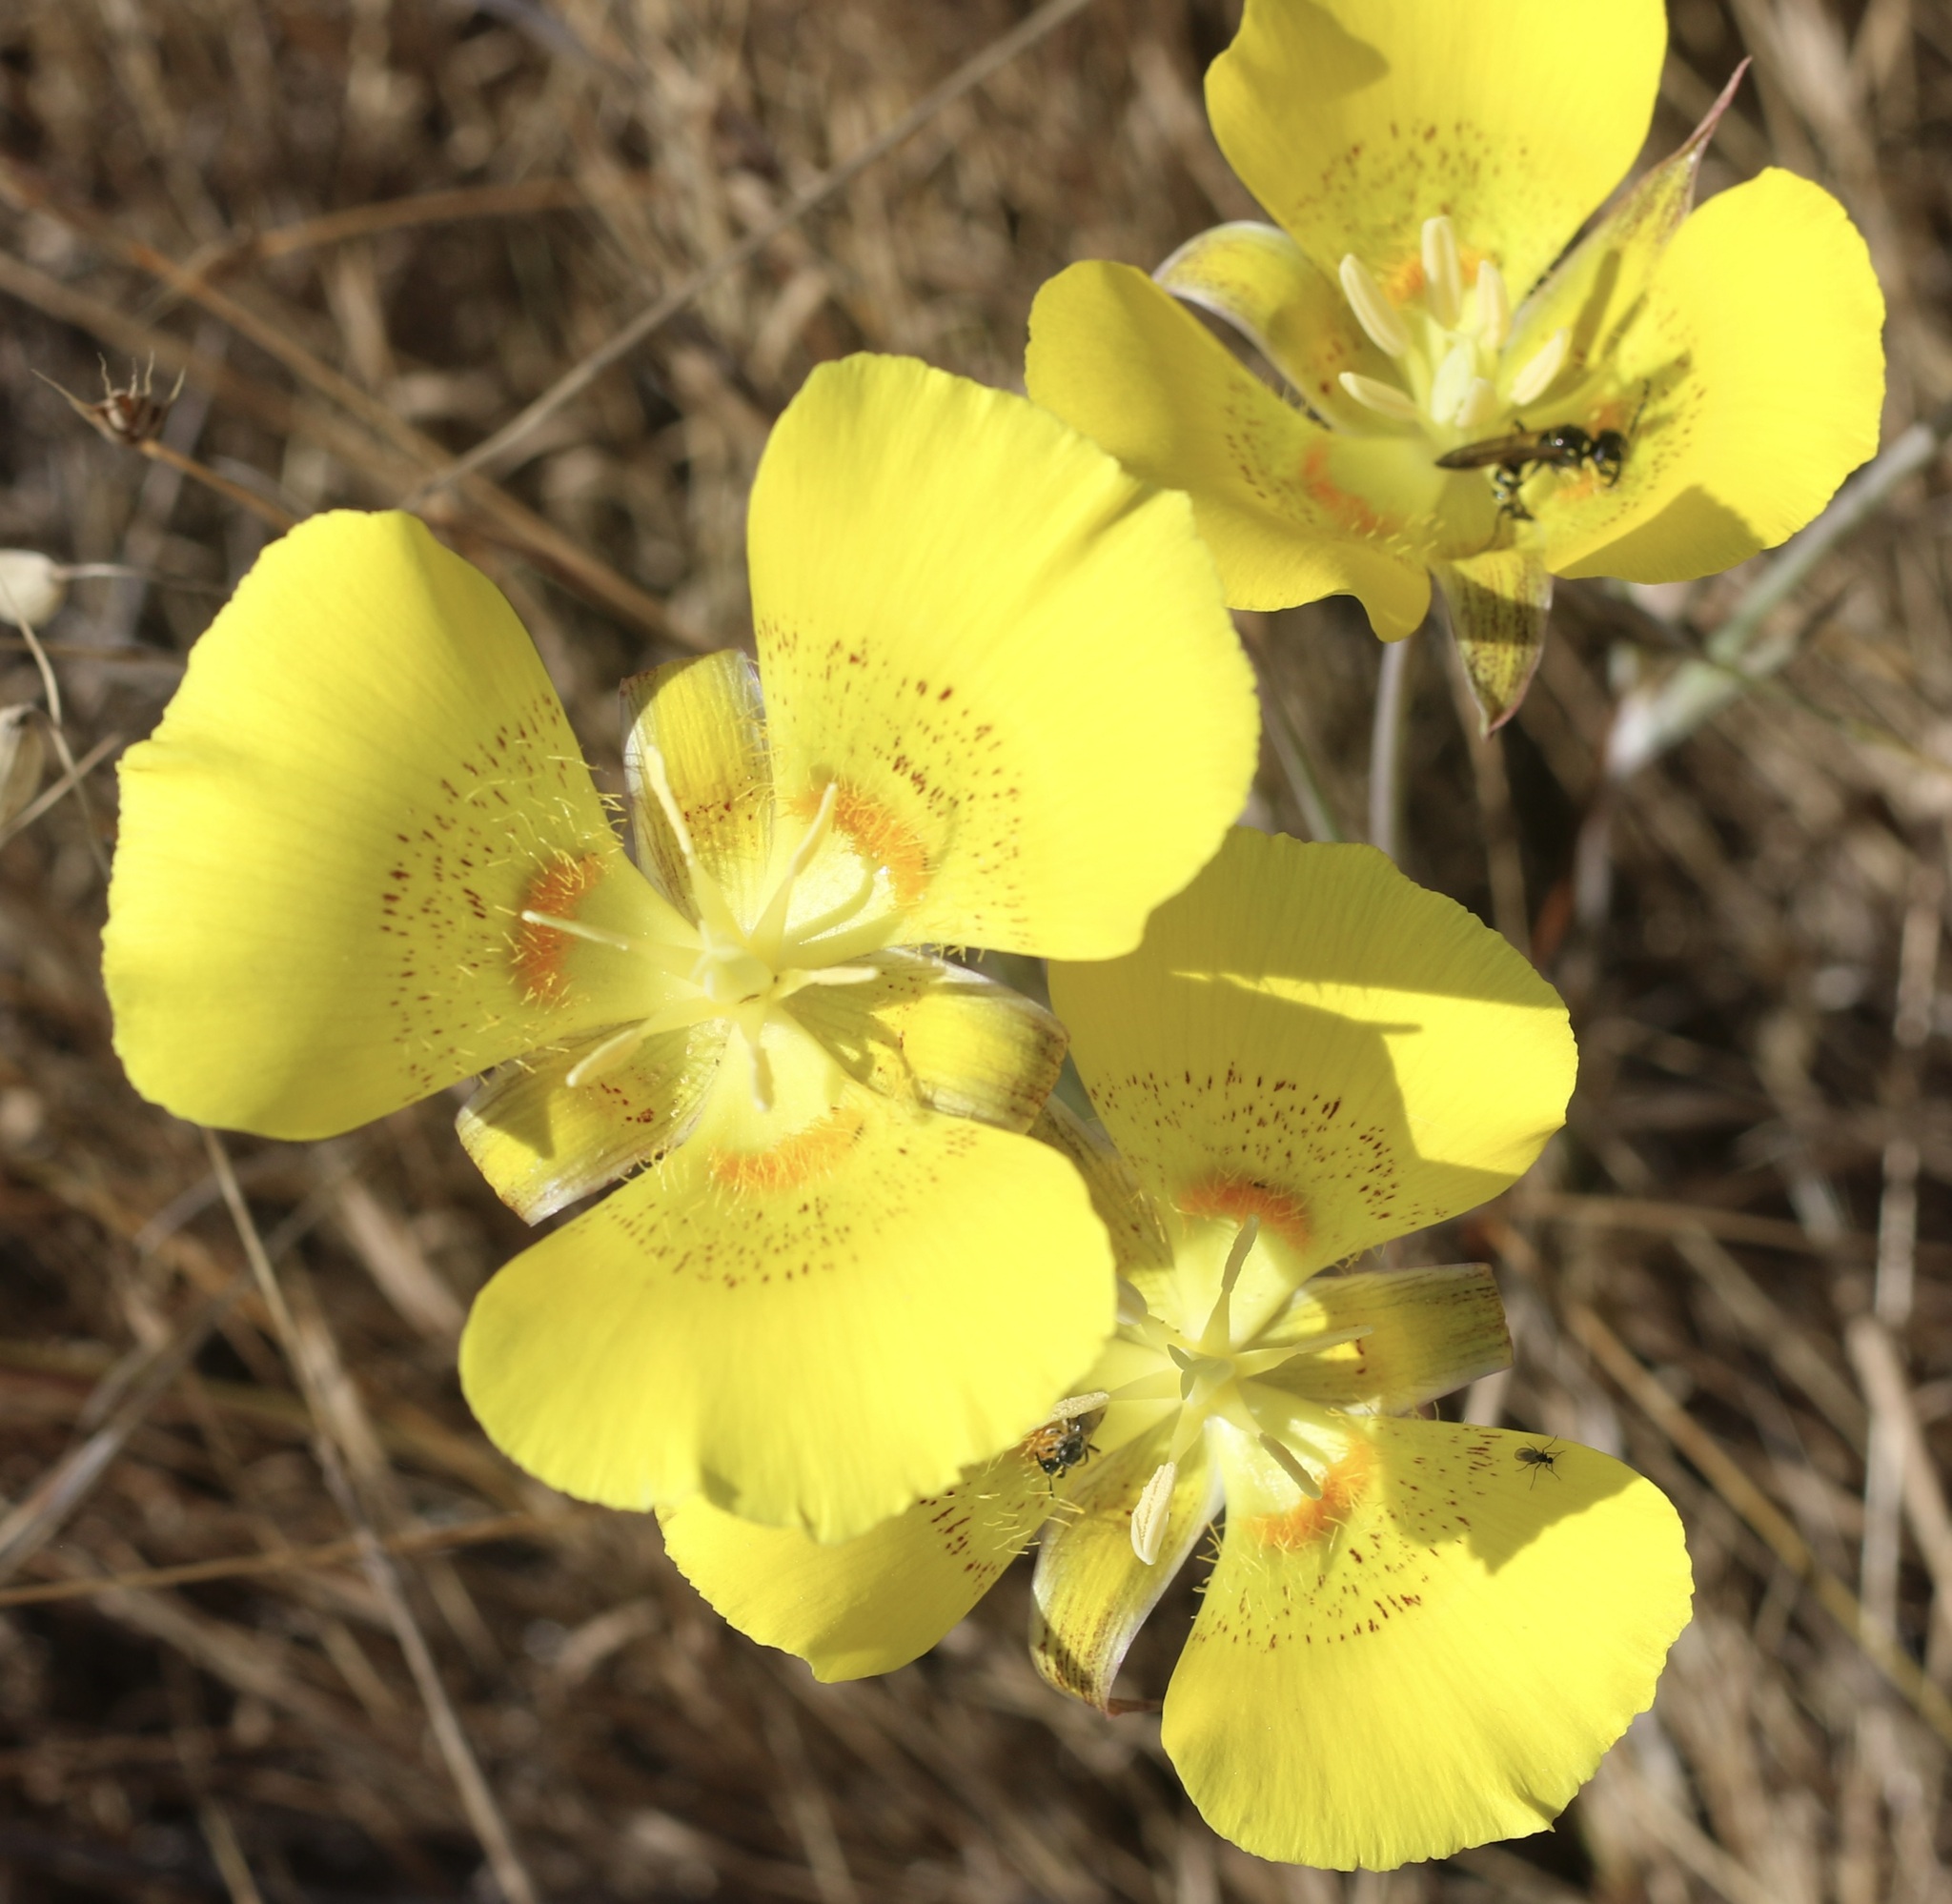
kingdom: Plantae
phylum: Tracheophyta
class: Liliopsida
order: Liliales
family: Liliaceae
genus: Calochortus
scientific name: Calochortus luteus
